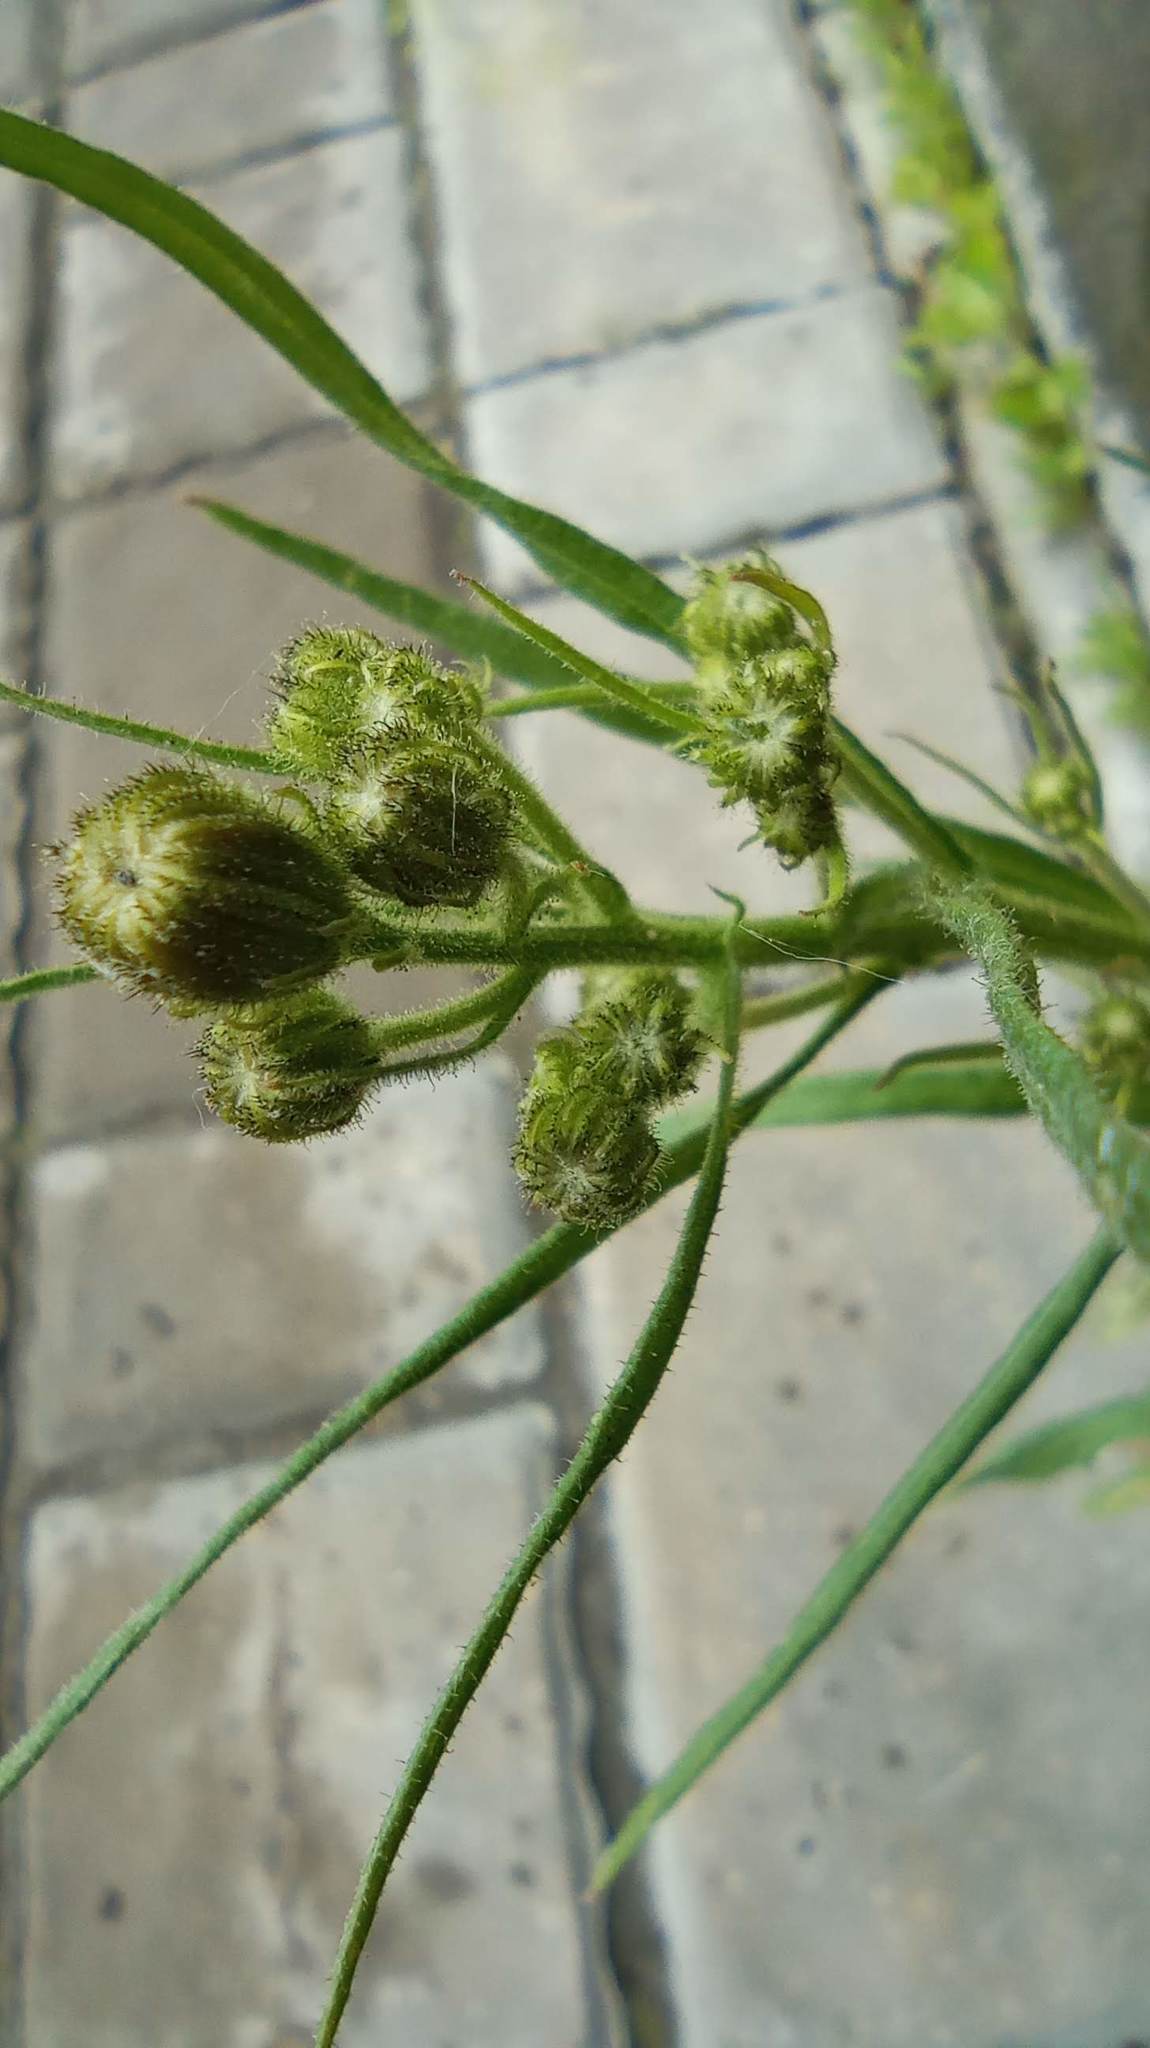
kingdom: Plantae
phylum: Tracheophyta
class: Magnoliopsida
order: Asterales
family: Asteraceae
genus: Crepis
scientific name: Crepis tectorum
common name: Narrow-leaved hawk's-beard
